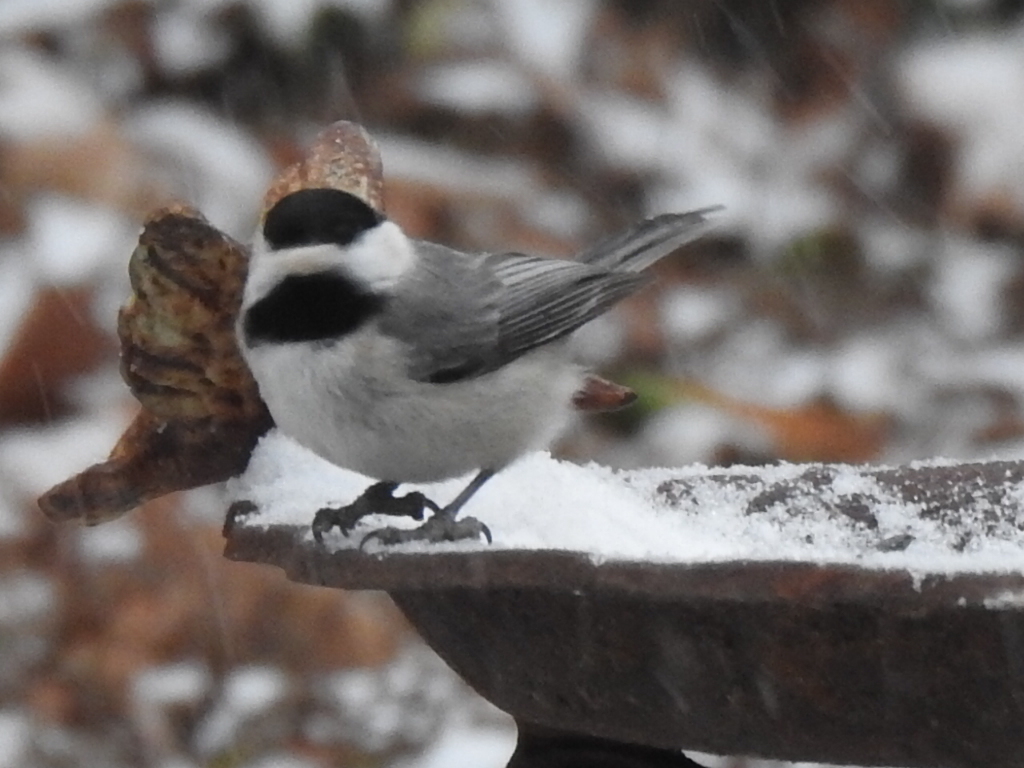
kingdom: Animalia
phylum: Chordata
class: Aves
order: Passeriformes
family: Paridae
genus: Poecile
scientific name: Poecile carolinensis
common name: Carolina chickadee
